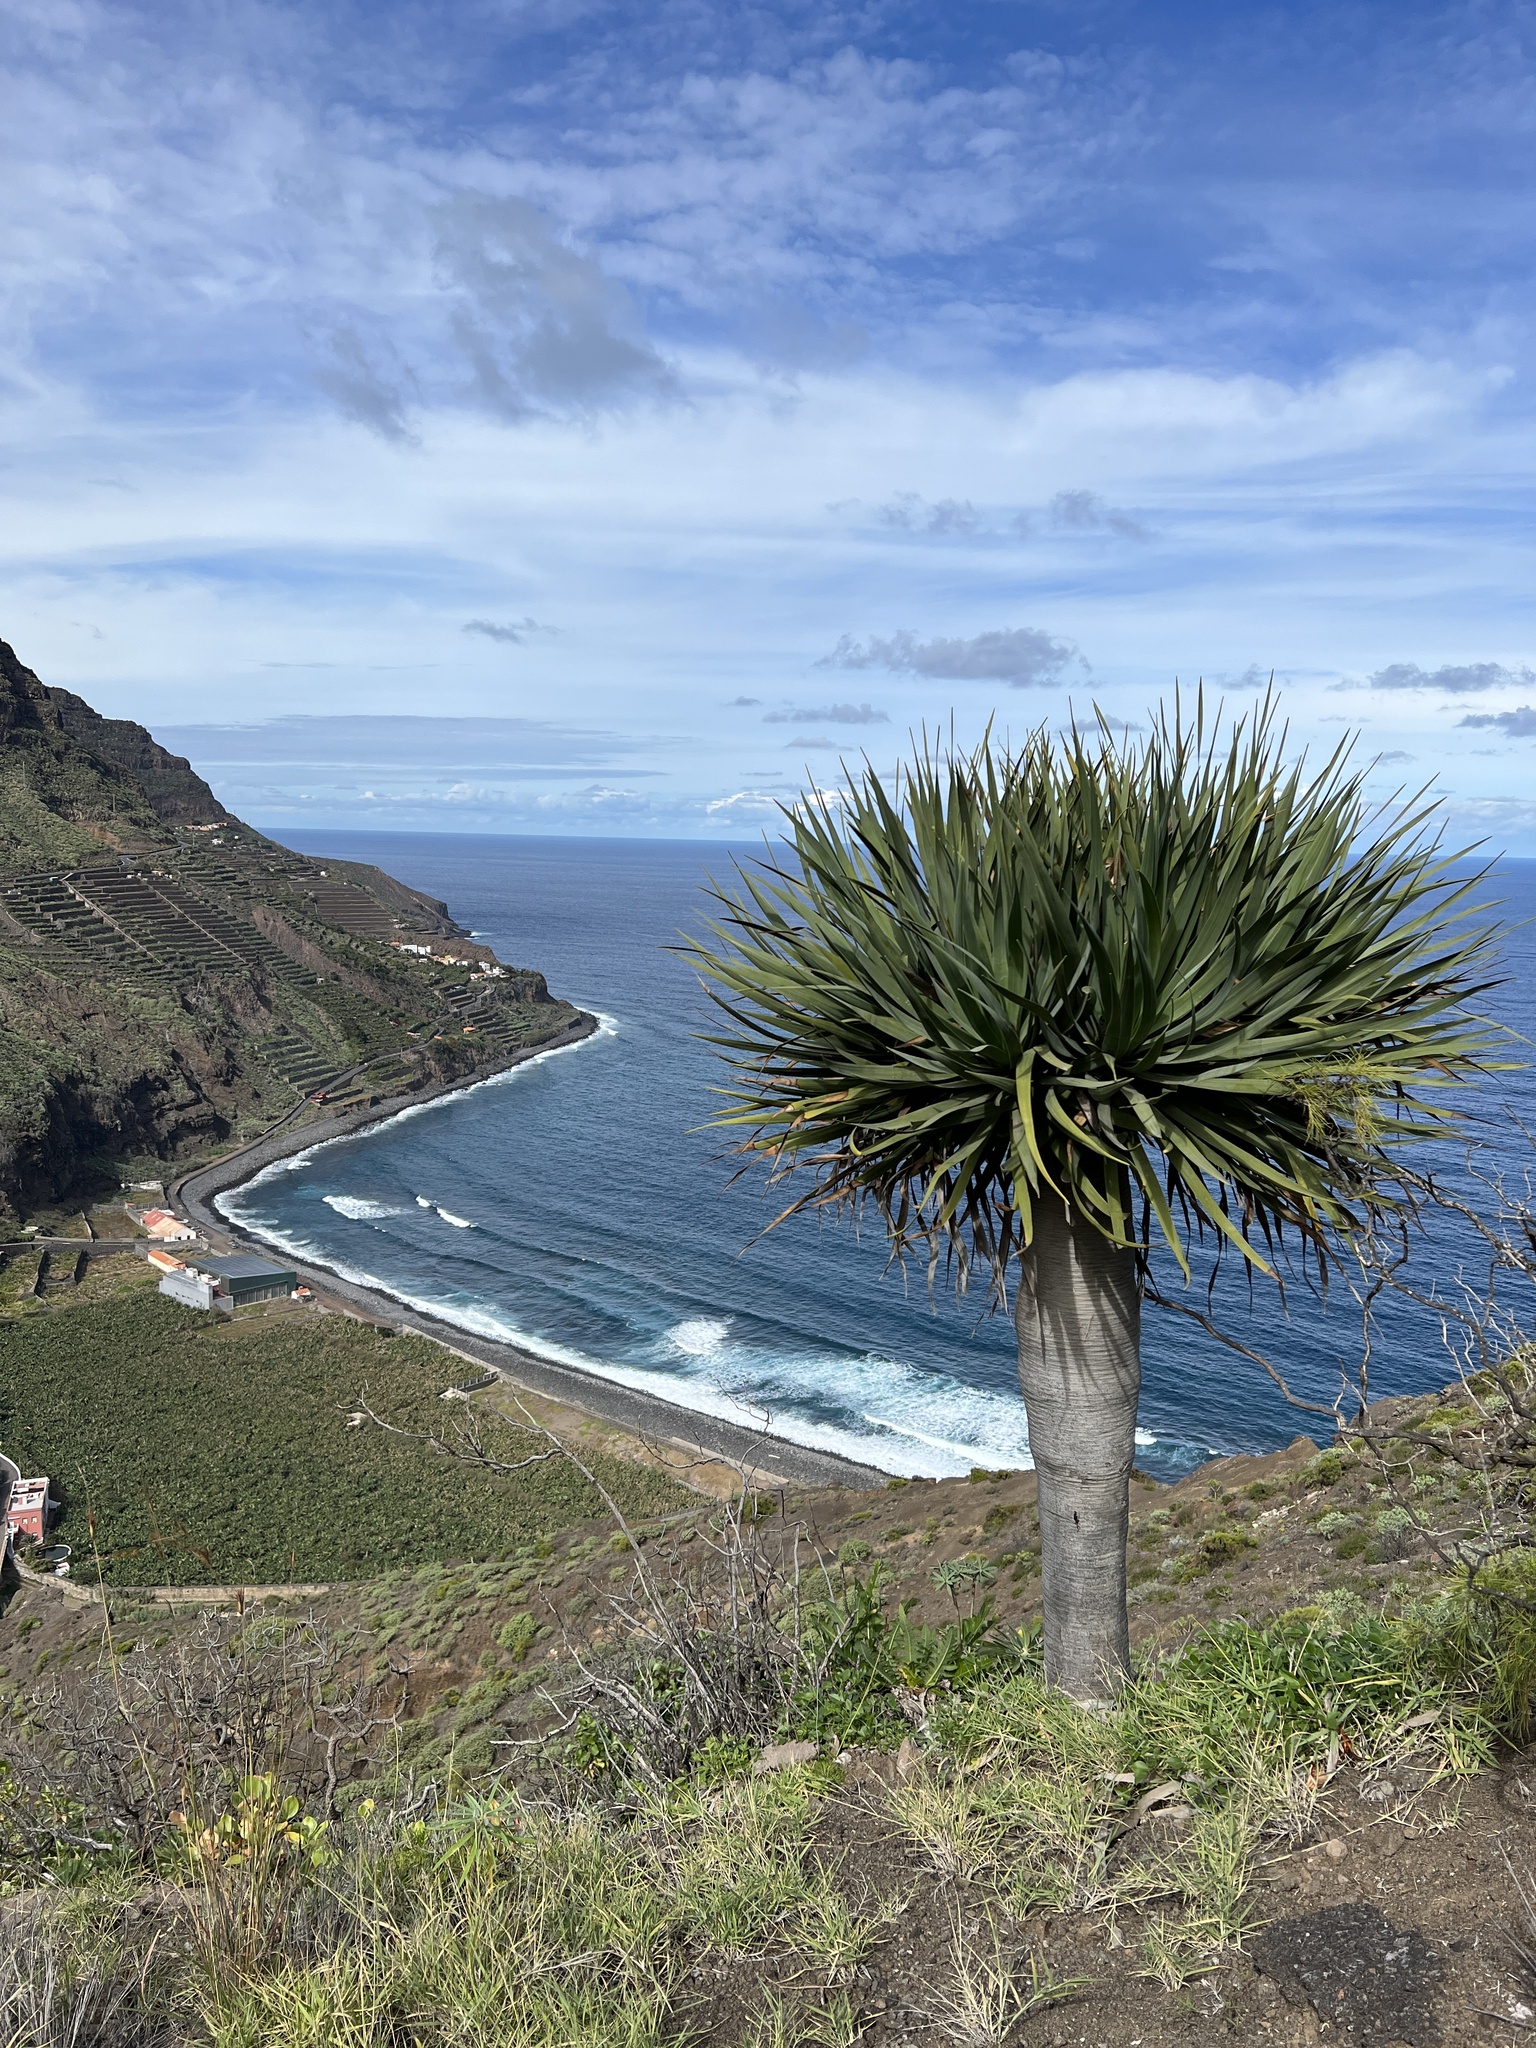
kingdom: Plantae
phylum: Tracheophyta
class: Liliopsida
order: Asparagales
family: Asparagaceae
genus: Dracaena
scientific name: Dracaena draco
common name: Canary island dragon tree
